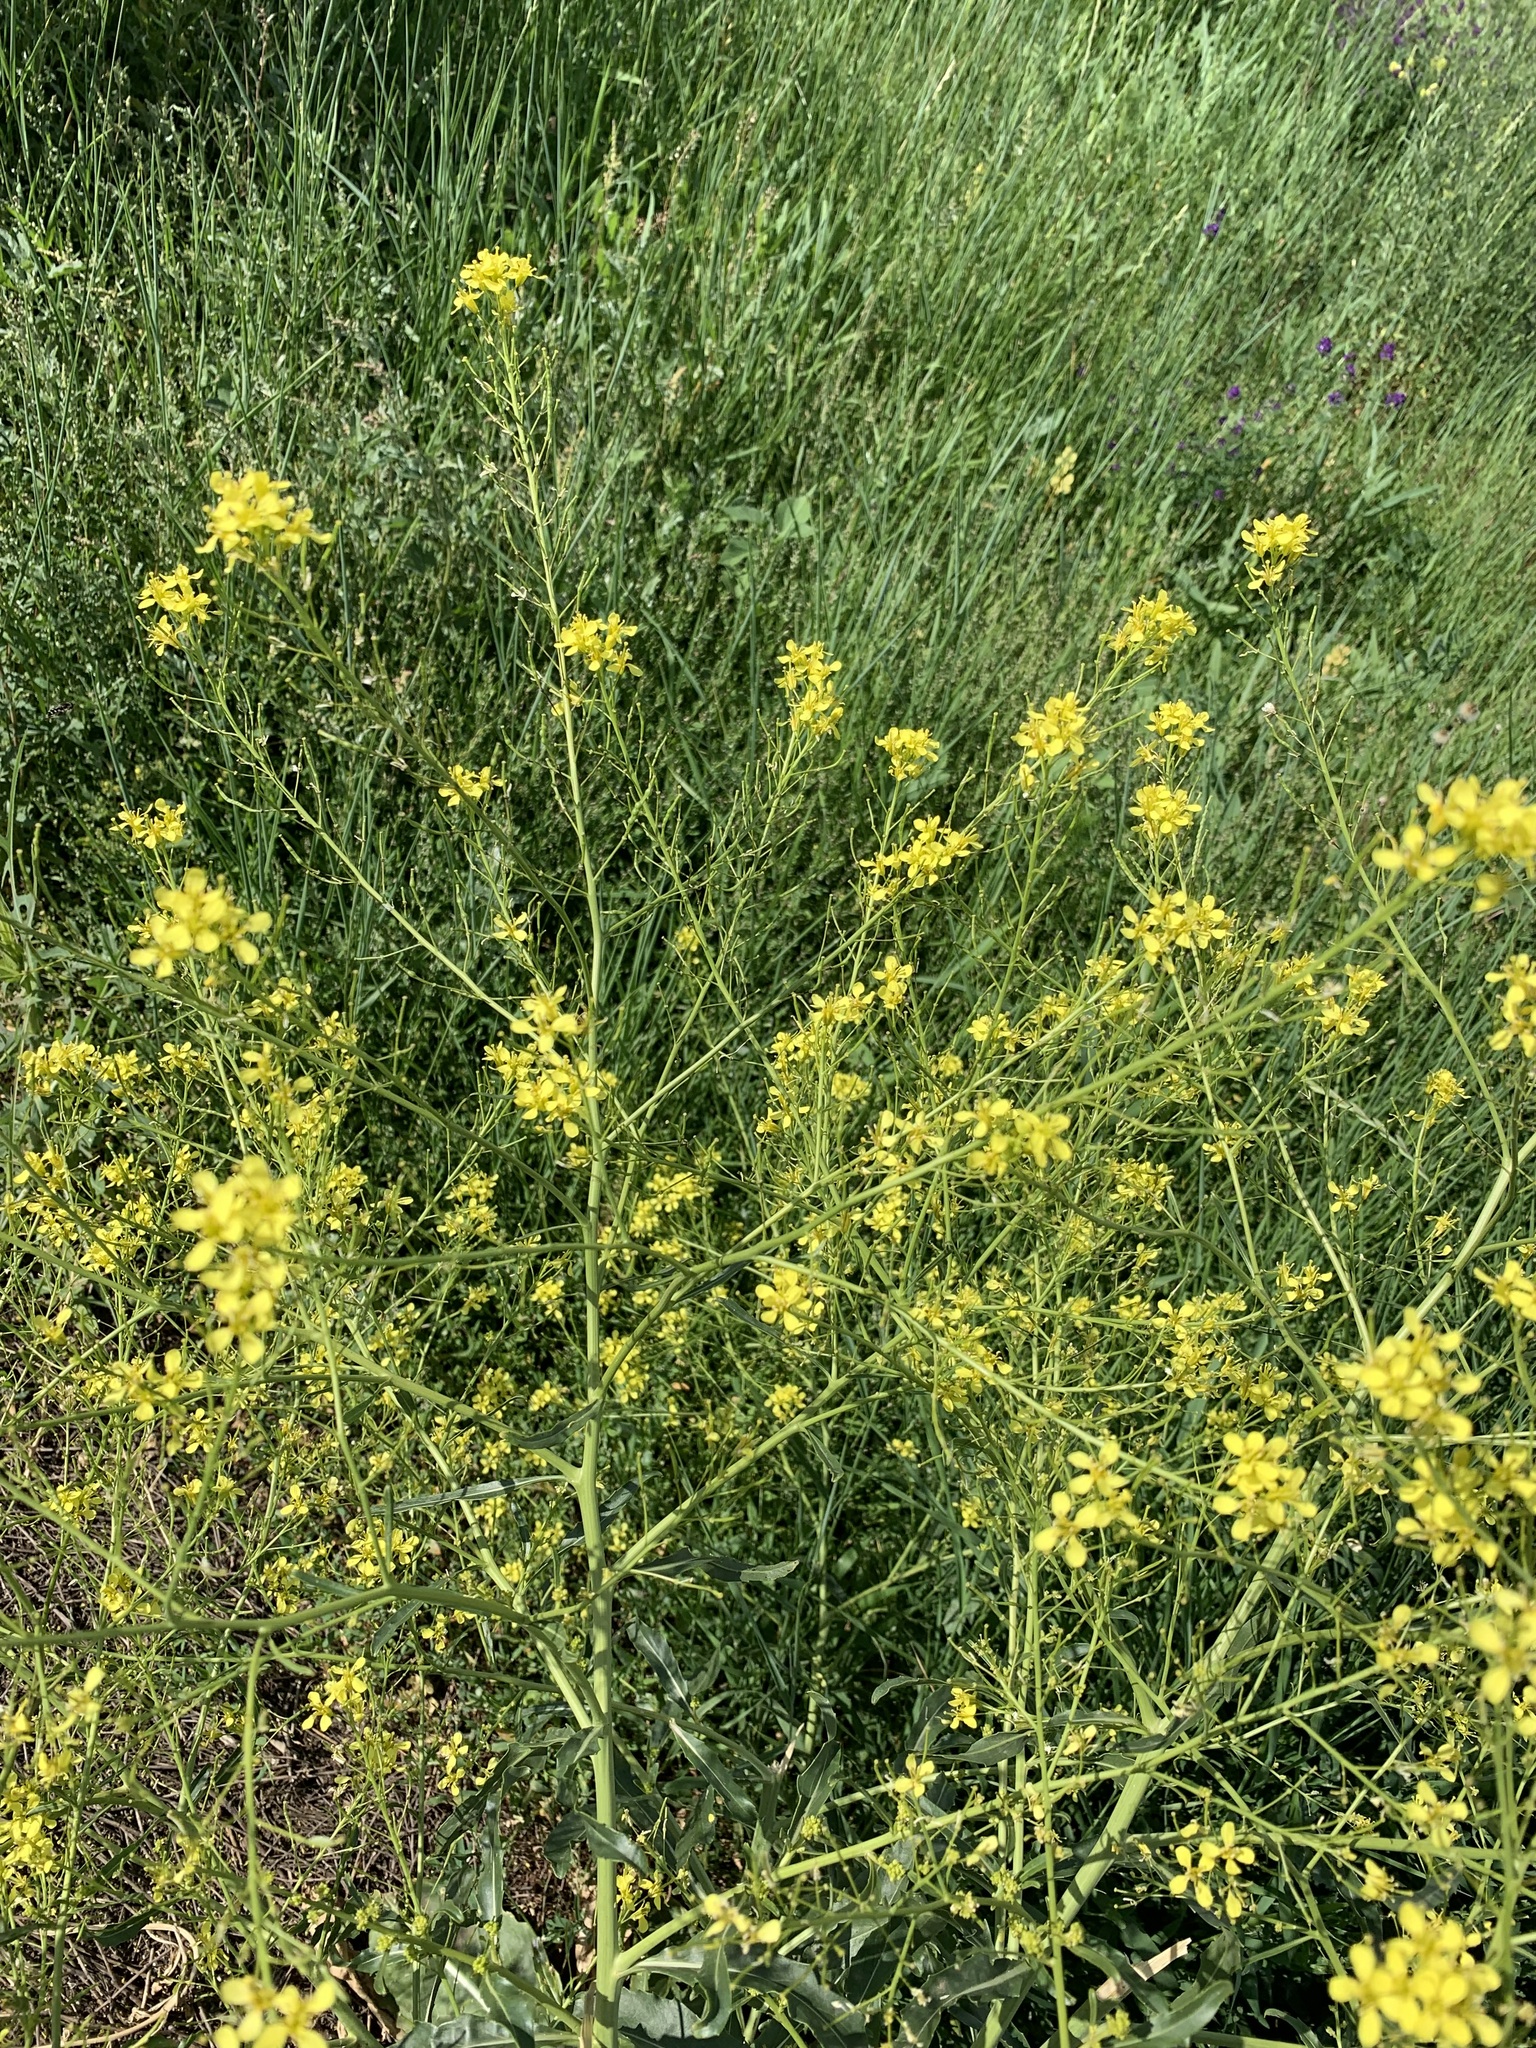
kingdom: Plantae
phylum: Tracheophyta
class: Magnoliopsida
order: Brassicales
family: Brassicaceae
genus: Brassica
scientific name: Brassica elongata
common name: Long-stalked rape
